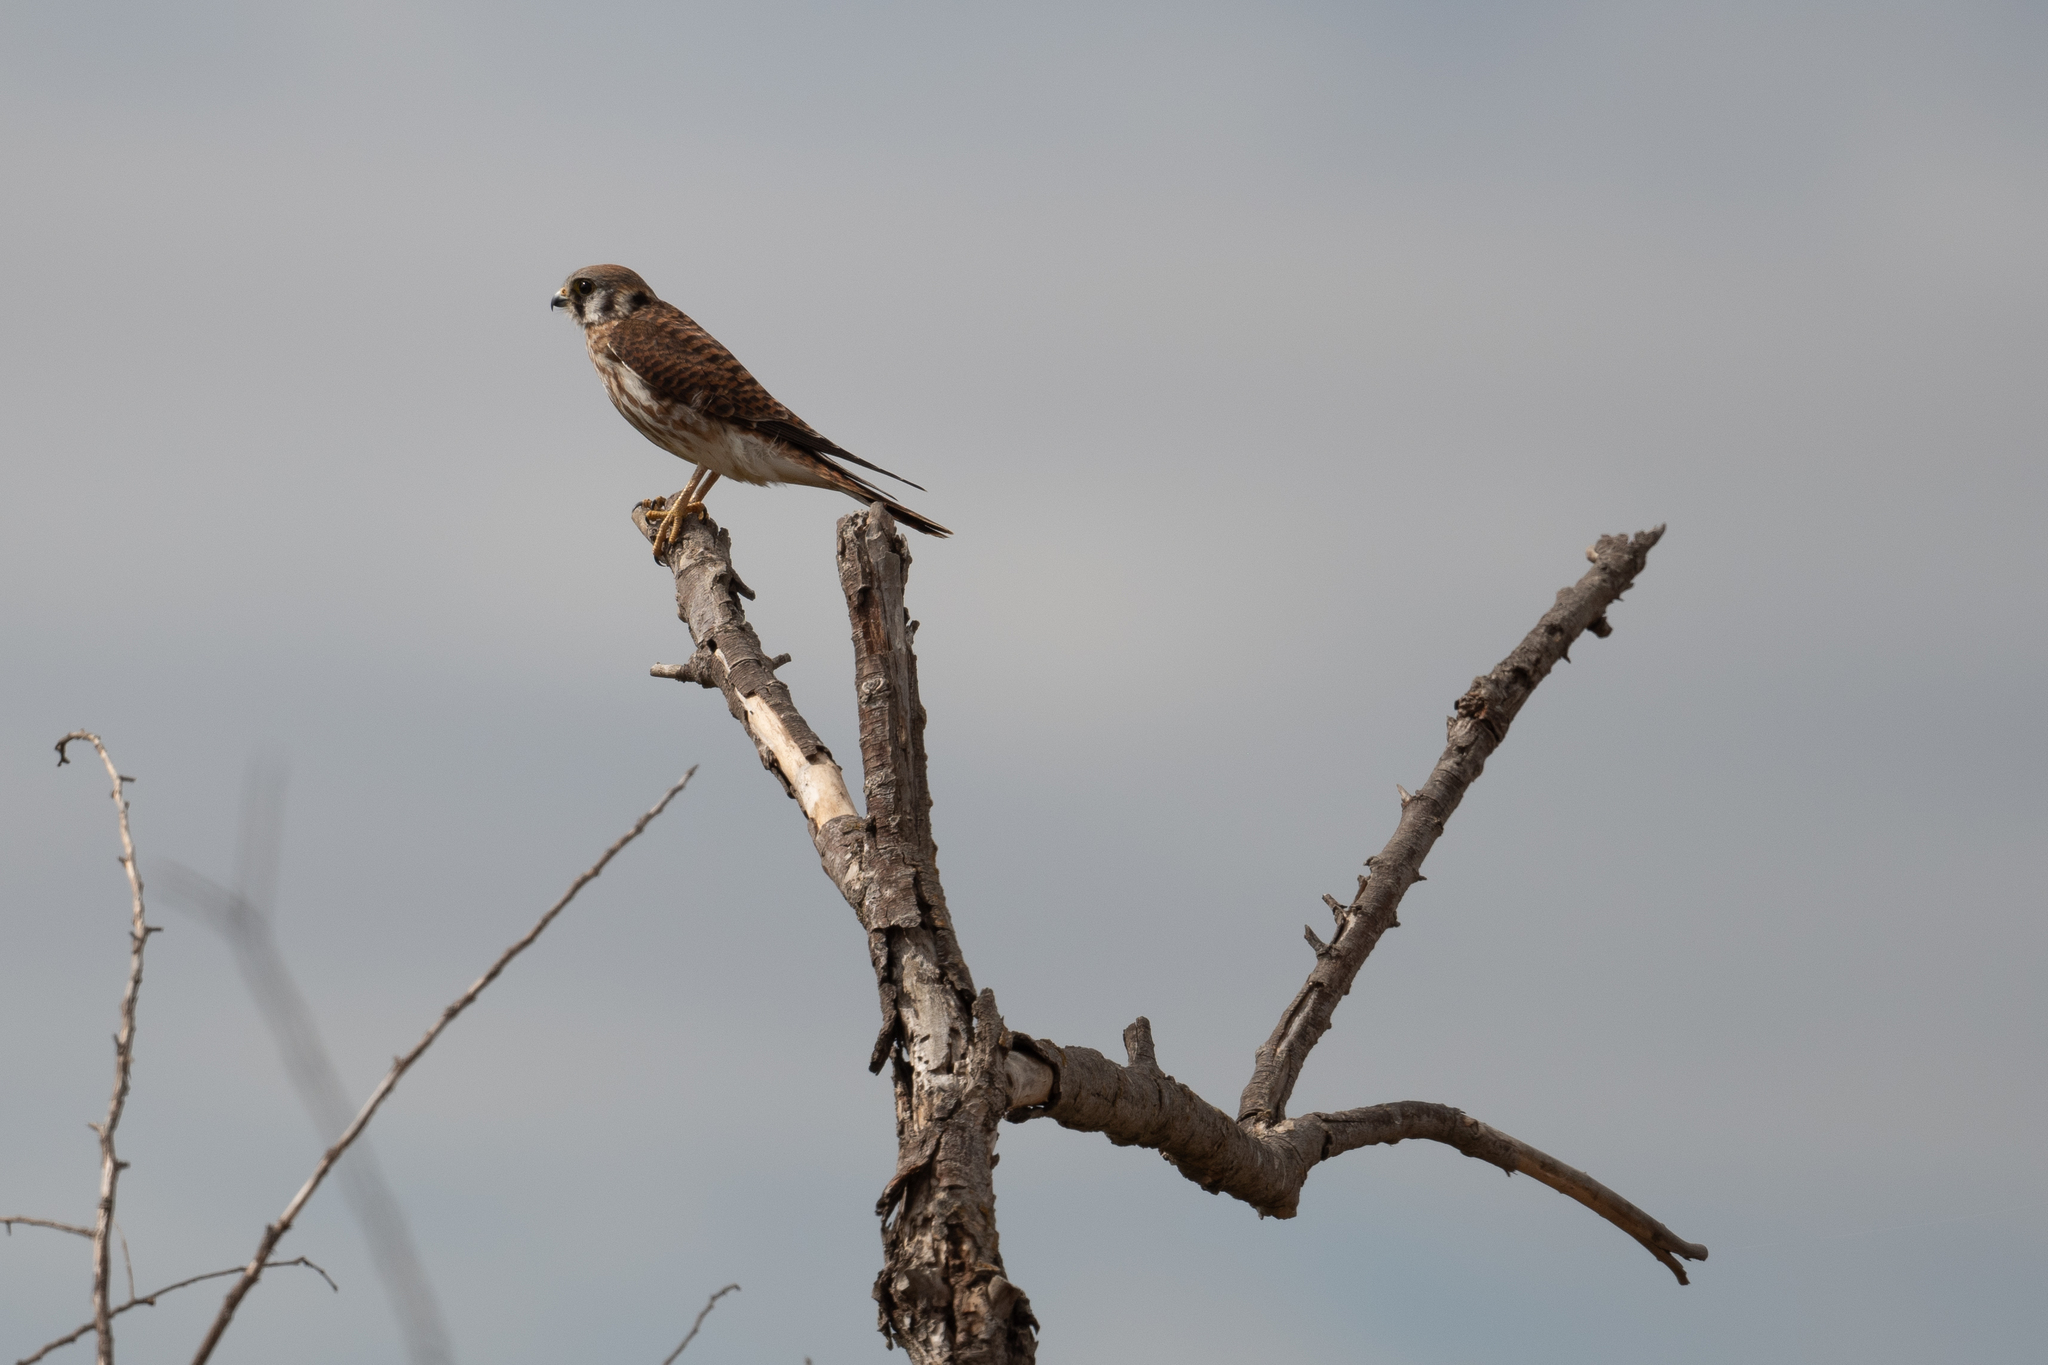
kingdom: Animalia
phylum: Chordata
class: Aves
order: Falconiformes
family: Falconidae
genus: Falco
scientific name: Falco sparverius
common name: American kestrel
